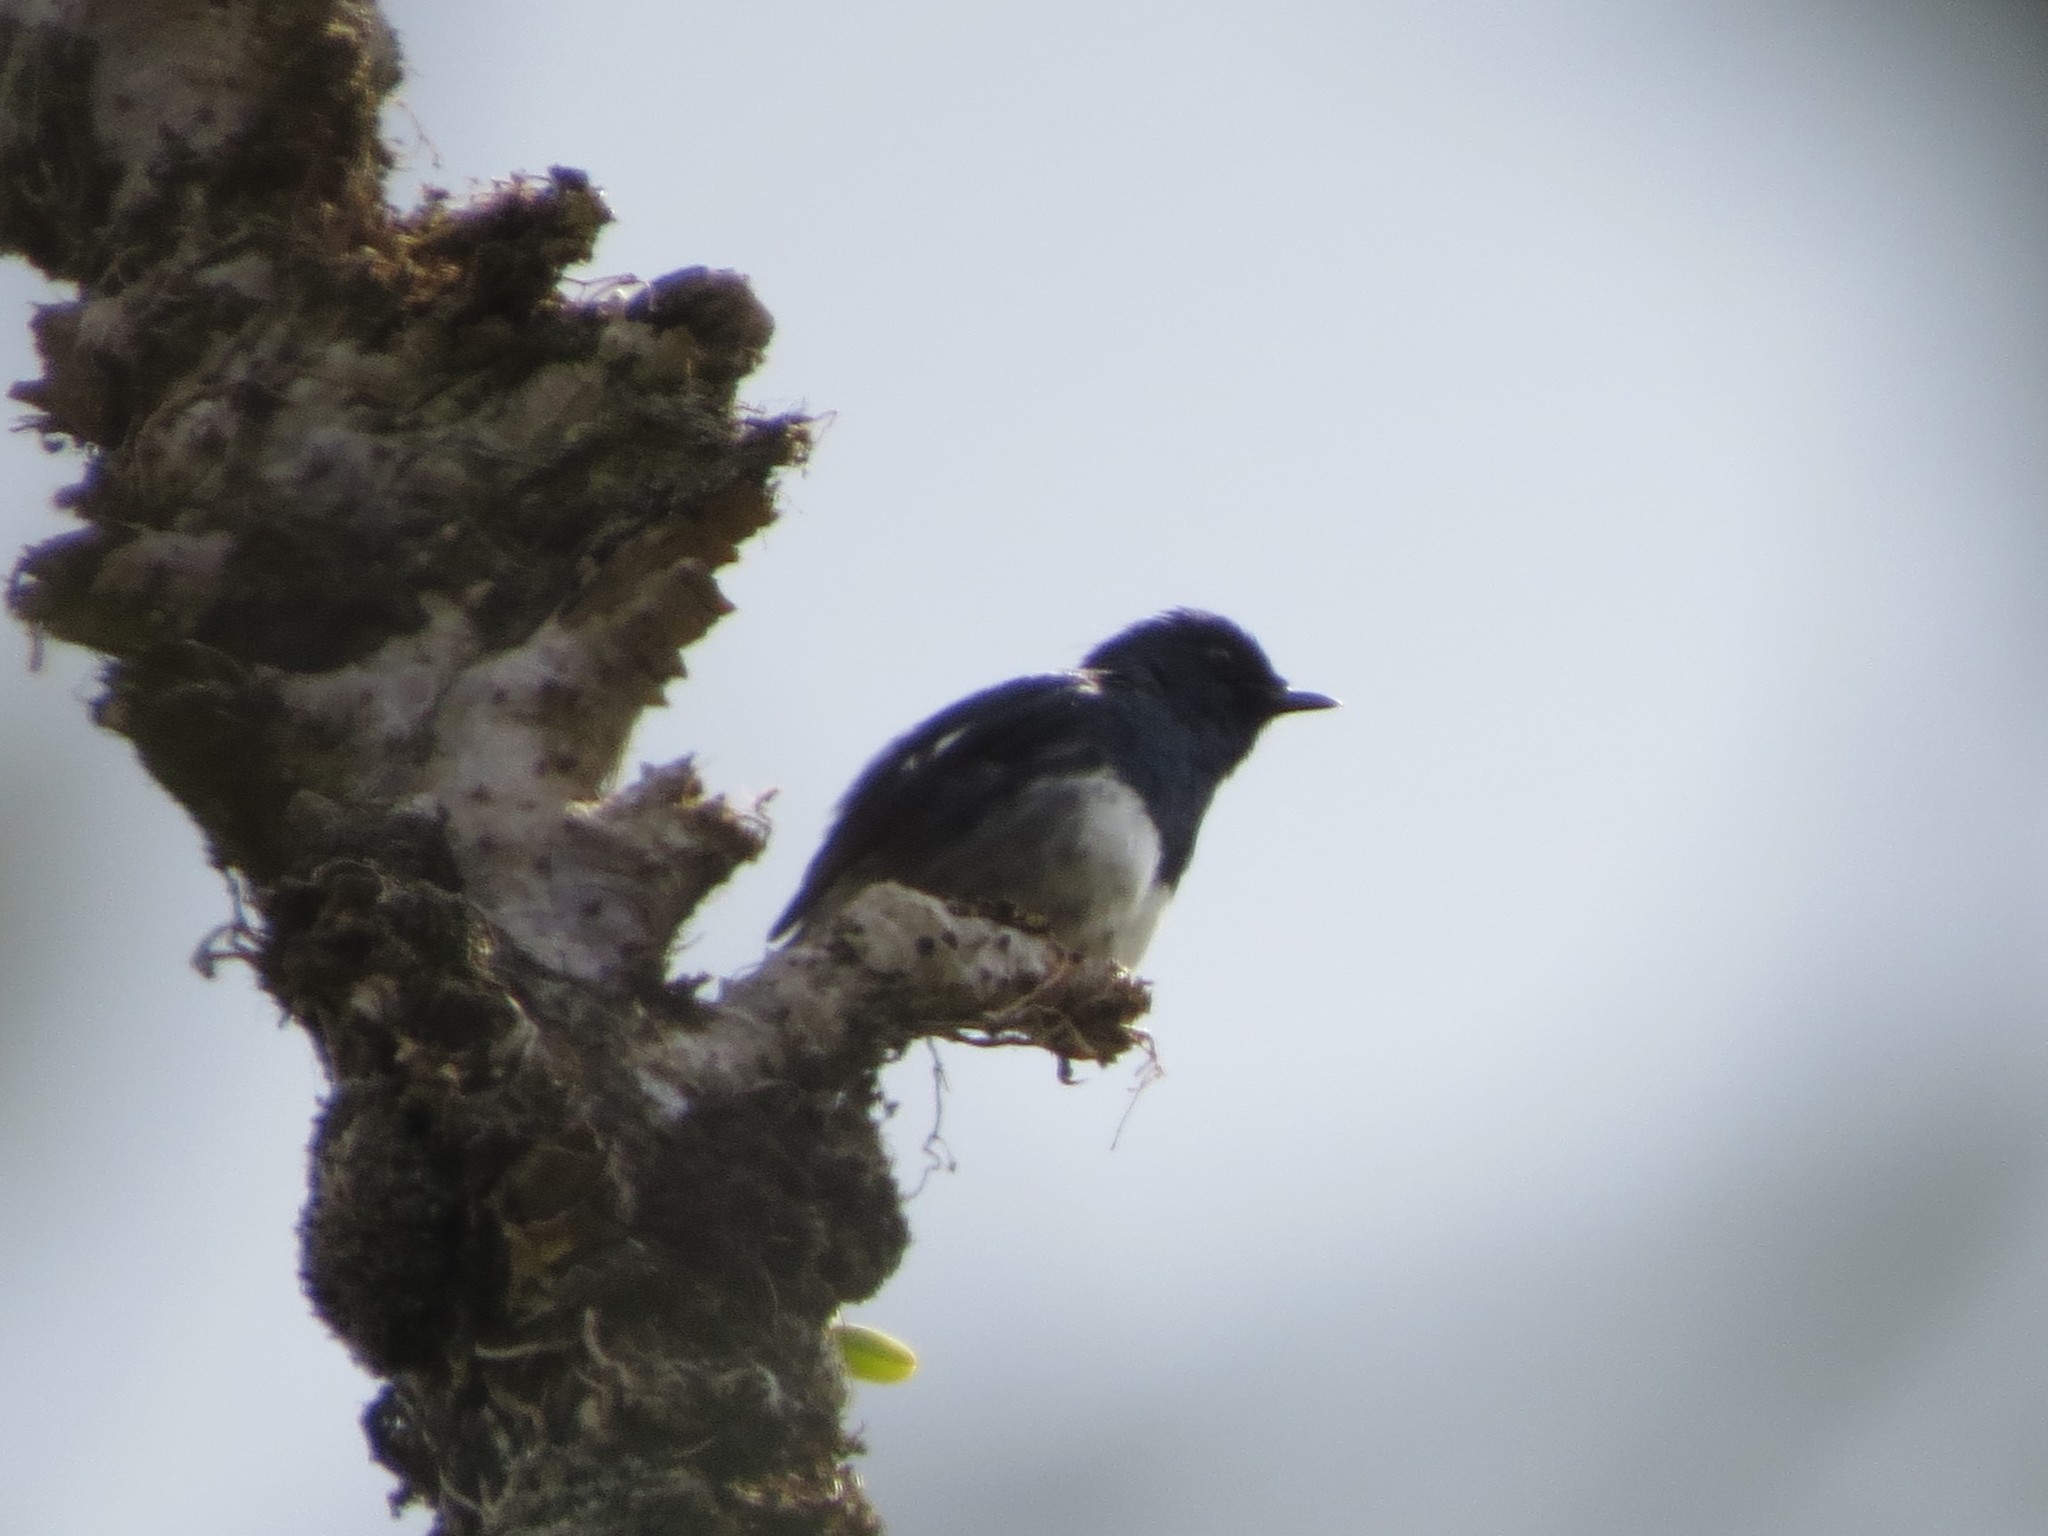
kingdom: Animalia
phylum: Chordata
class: Aves
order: Passeriformes
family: Muscicapidae
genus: Copsychus
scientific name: Copsychus albospecularis
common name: Madagascar magpie-robin
